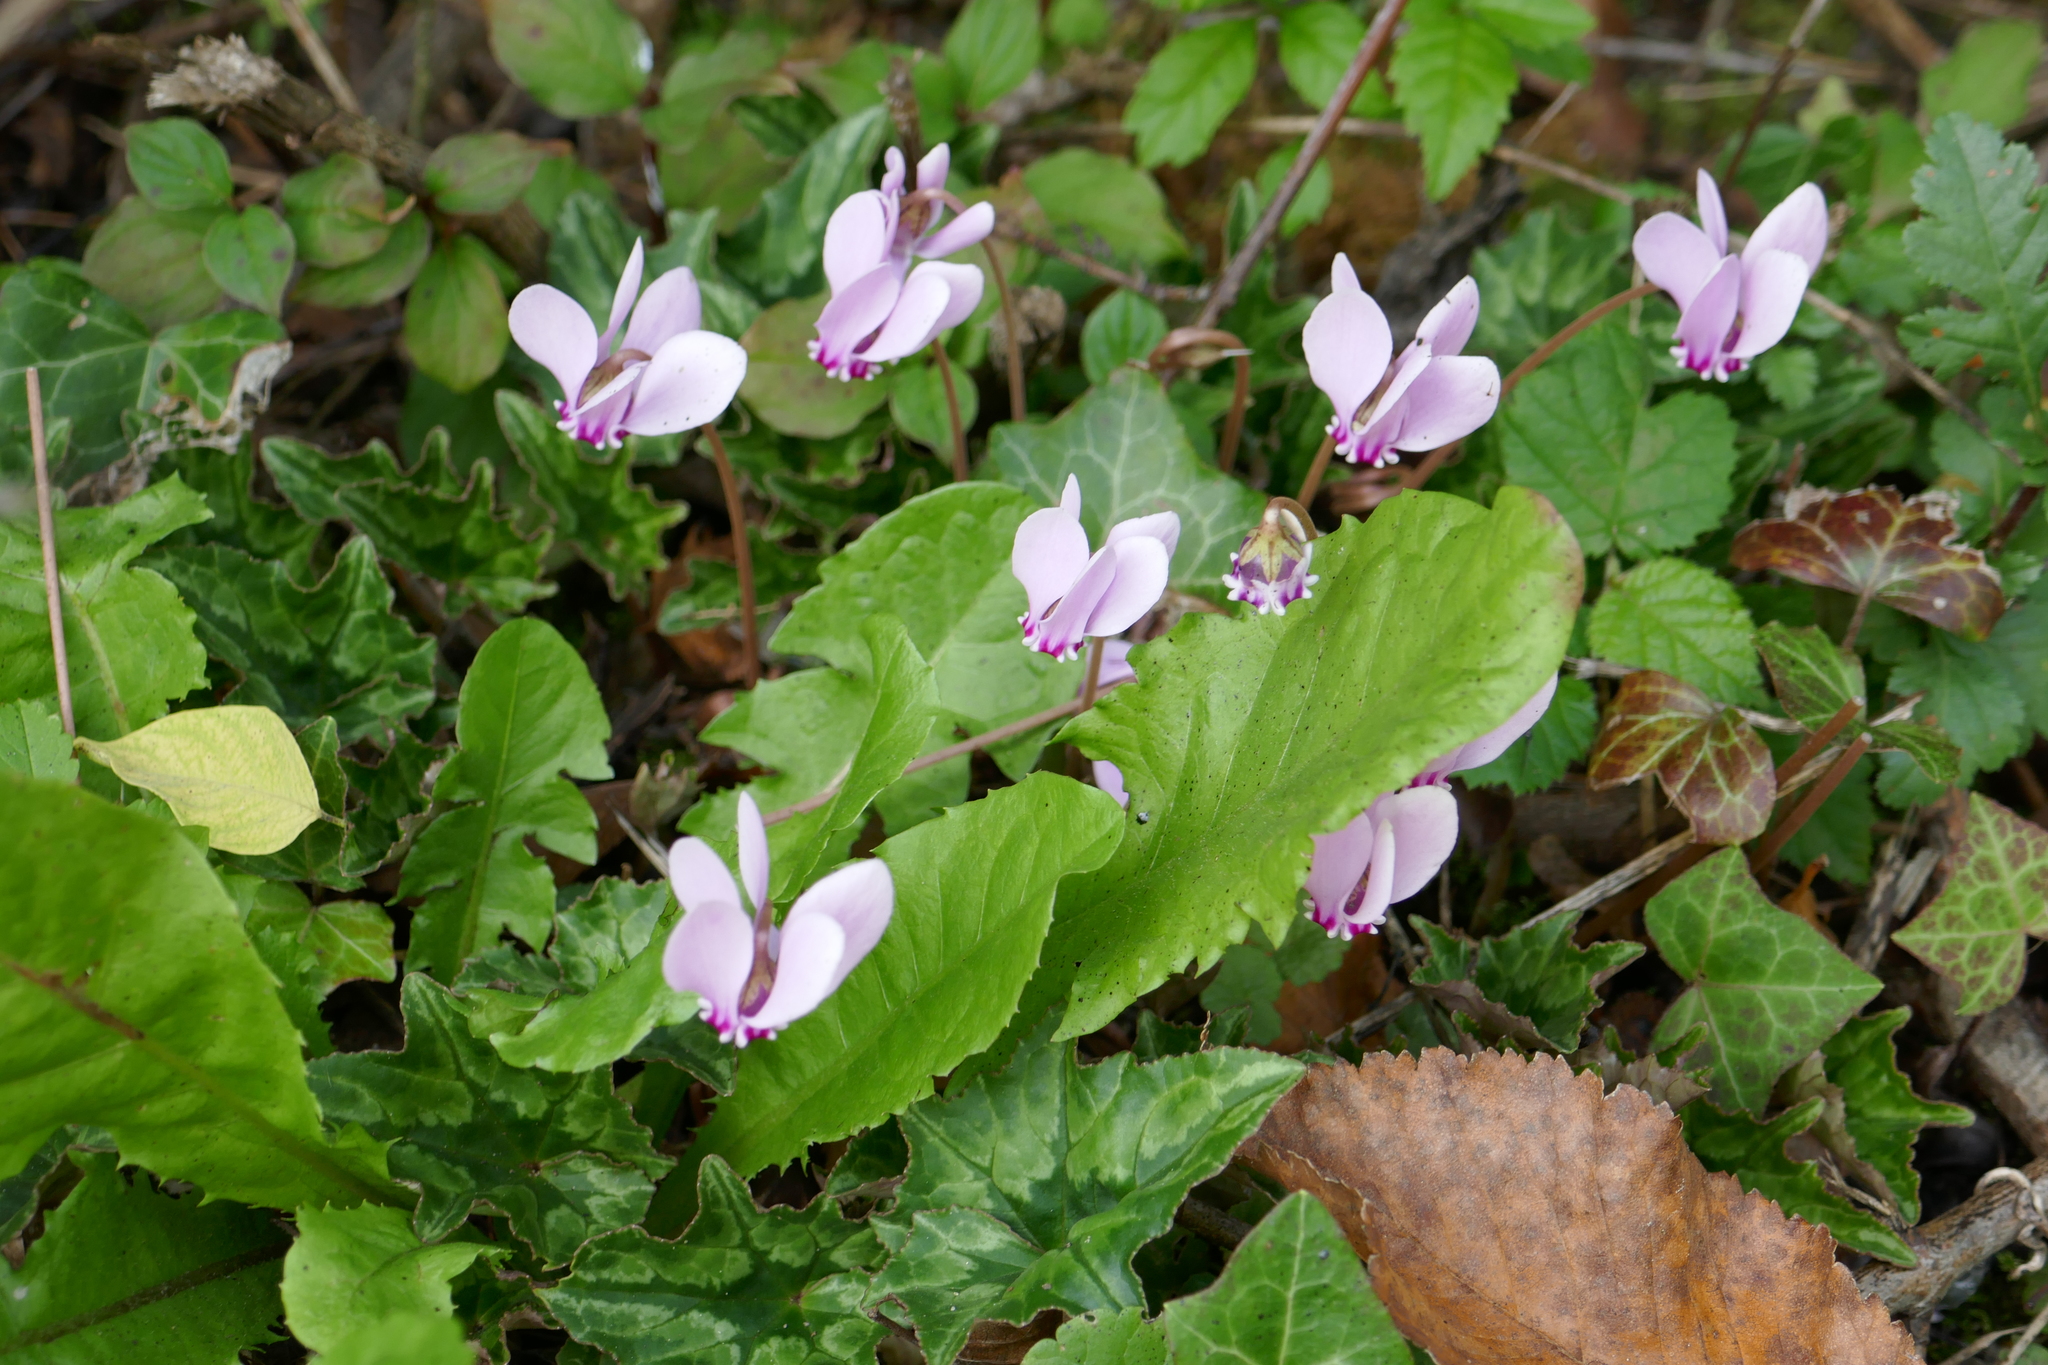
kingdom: Plantae
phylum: Tracheophyta
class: Magnoliopsida
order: Ericales
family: Primulaceae
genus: Cyclamen
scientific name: Cyclamen hederifolium
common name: Sowbread
